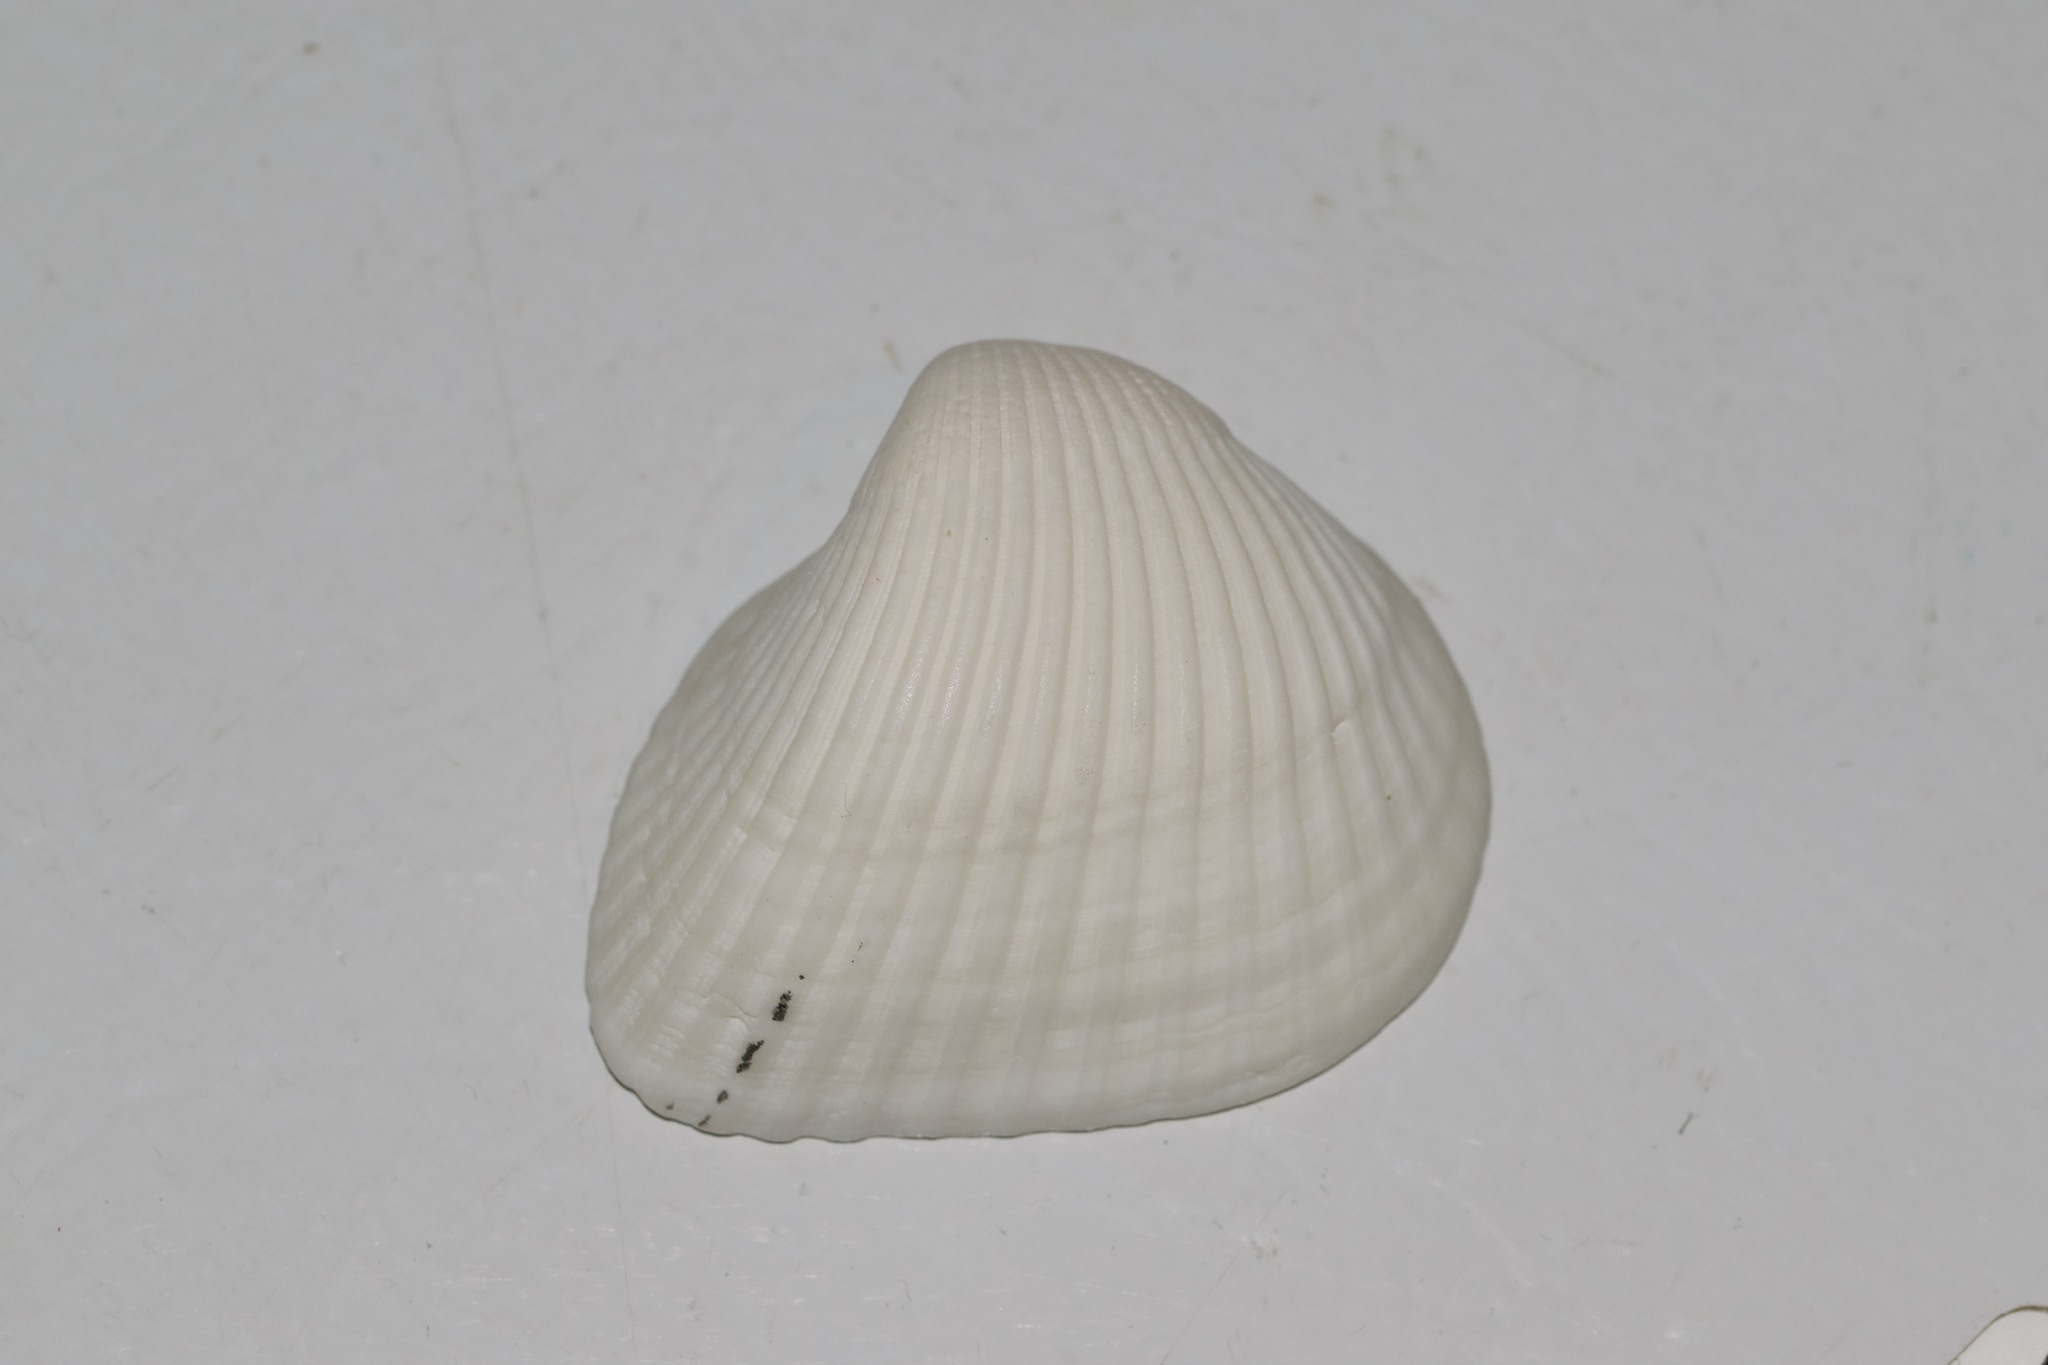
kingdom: Animalia
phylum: Mollusca
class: Bivalvia
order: Arcida
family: Noetiidae
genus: Noetia
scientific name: Noetia ponderosa
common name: Ponderous ark
